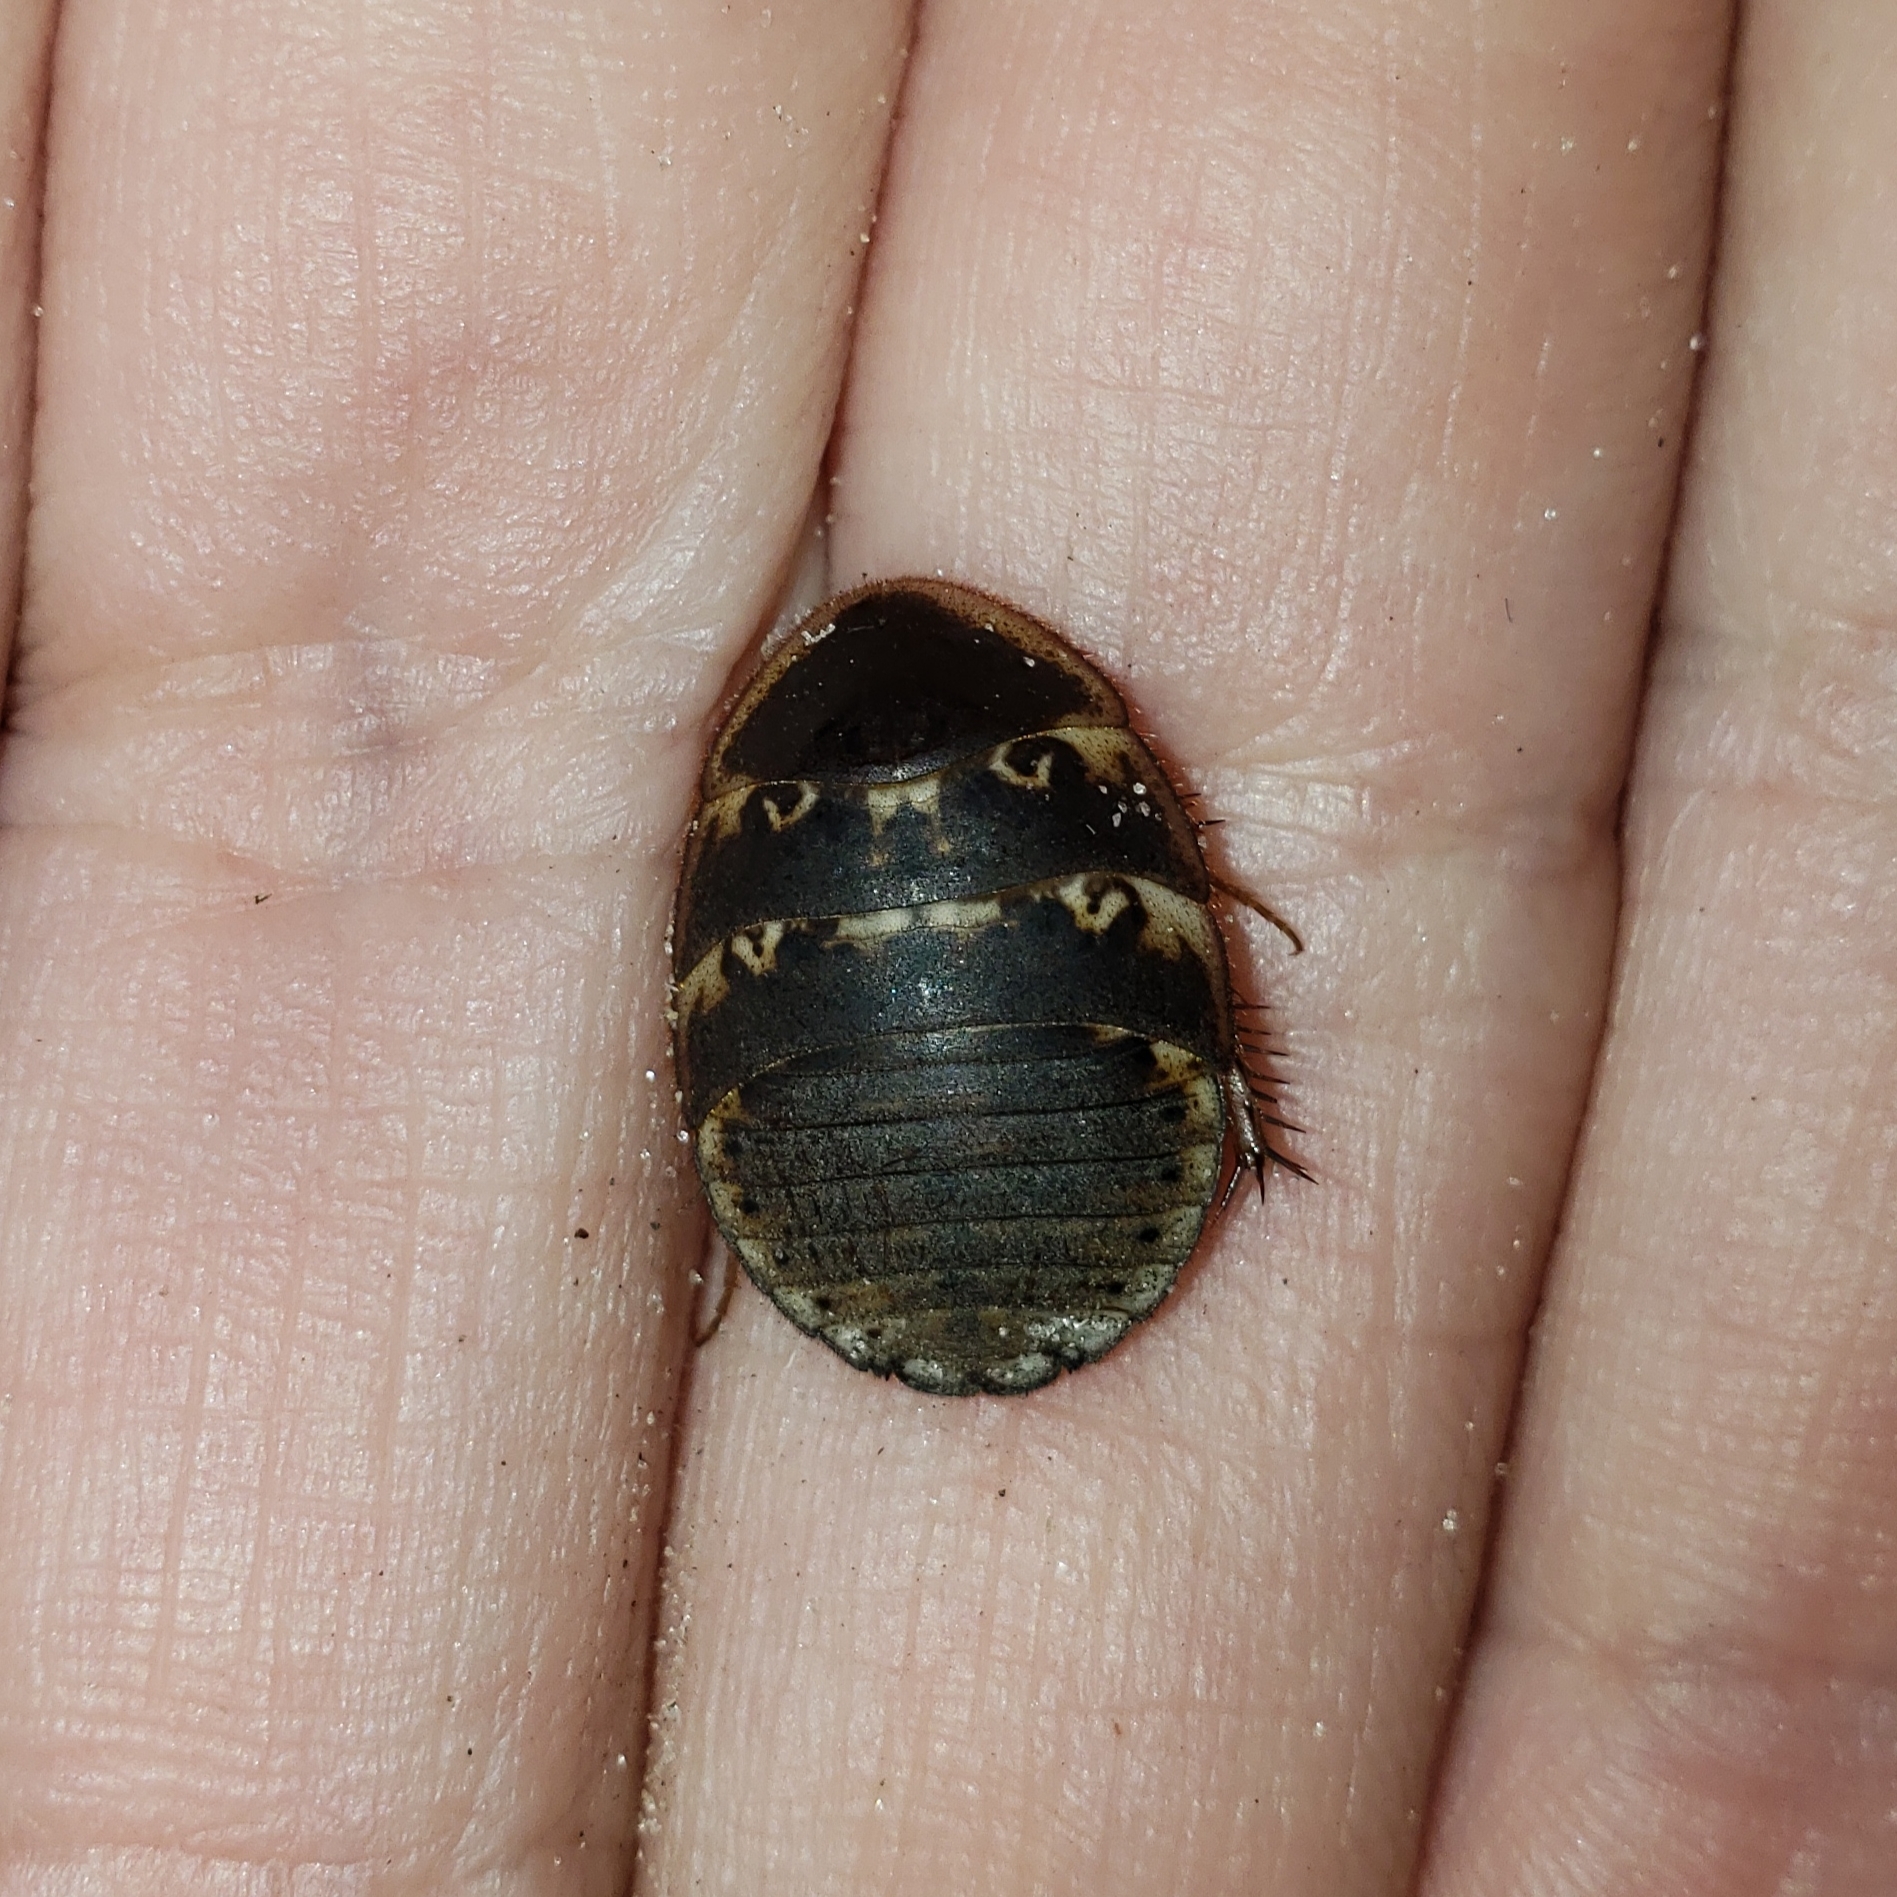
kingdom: Animalia
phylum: Arthropoda
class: Insecta
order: Blattodea
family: Corydiidae
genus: Arenivaga
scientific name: Arenivaga floridensis
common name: Florida sand cockroach
